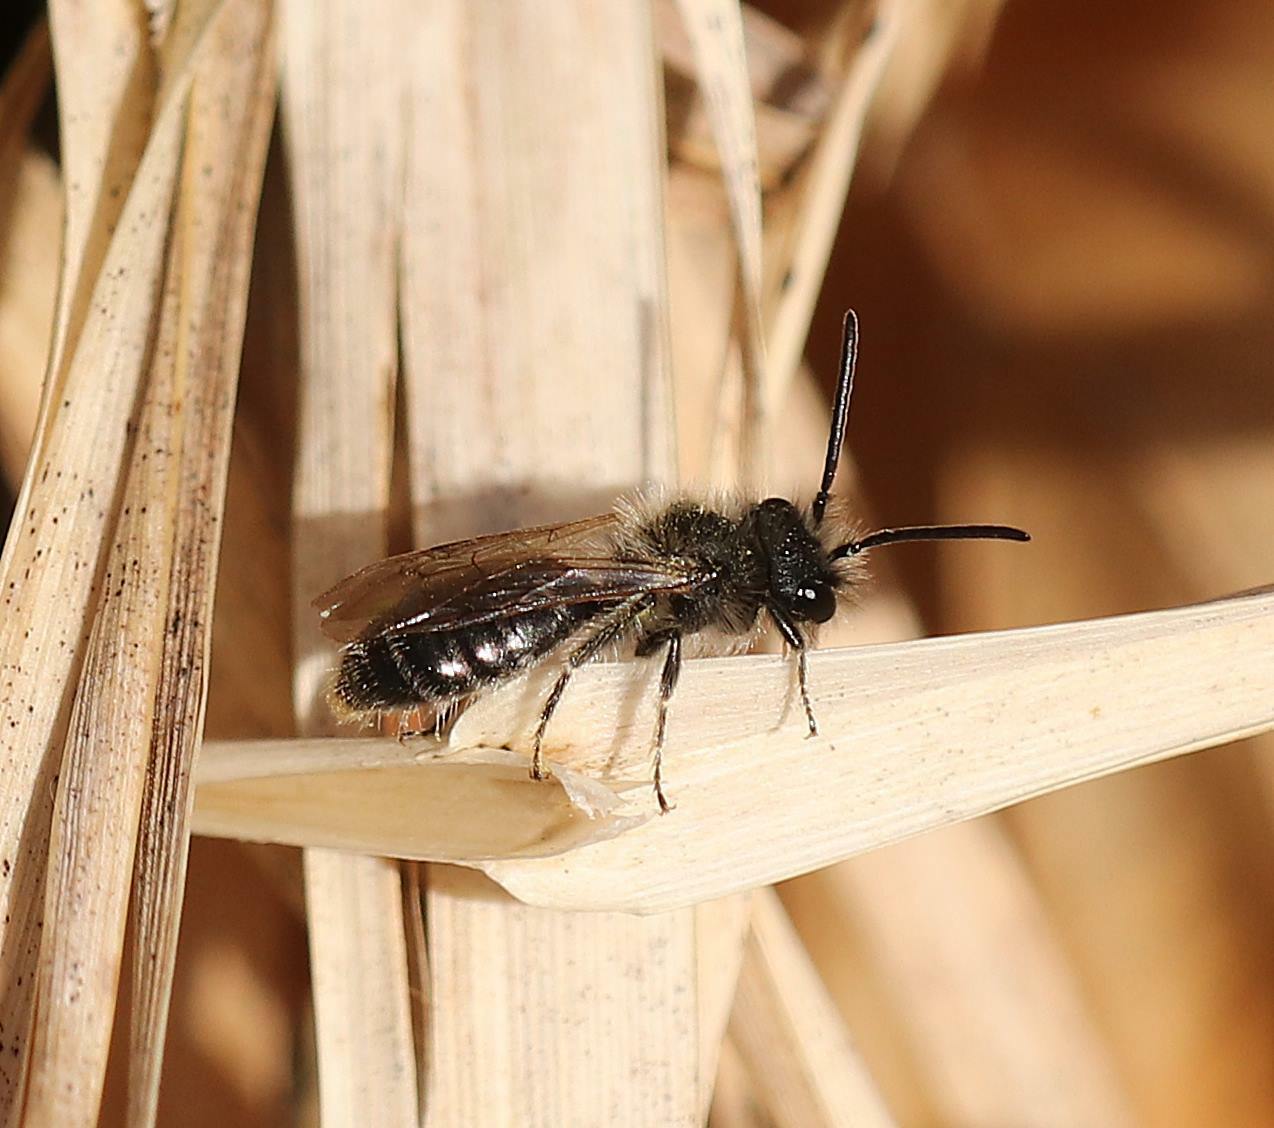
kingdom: Animalia
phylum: Arthropoda
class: Insecta
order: Hymenoptera
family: Andrenidae
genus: Andrena
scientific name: Andrena ruficrus
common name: Northern mining bee
